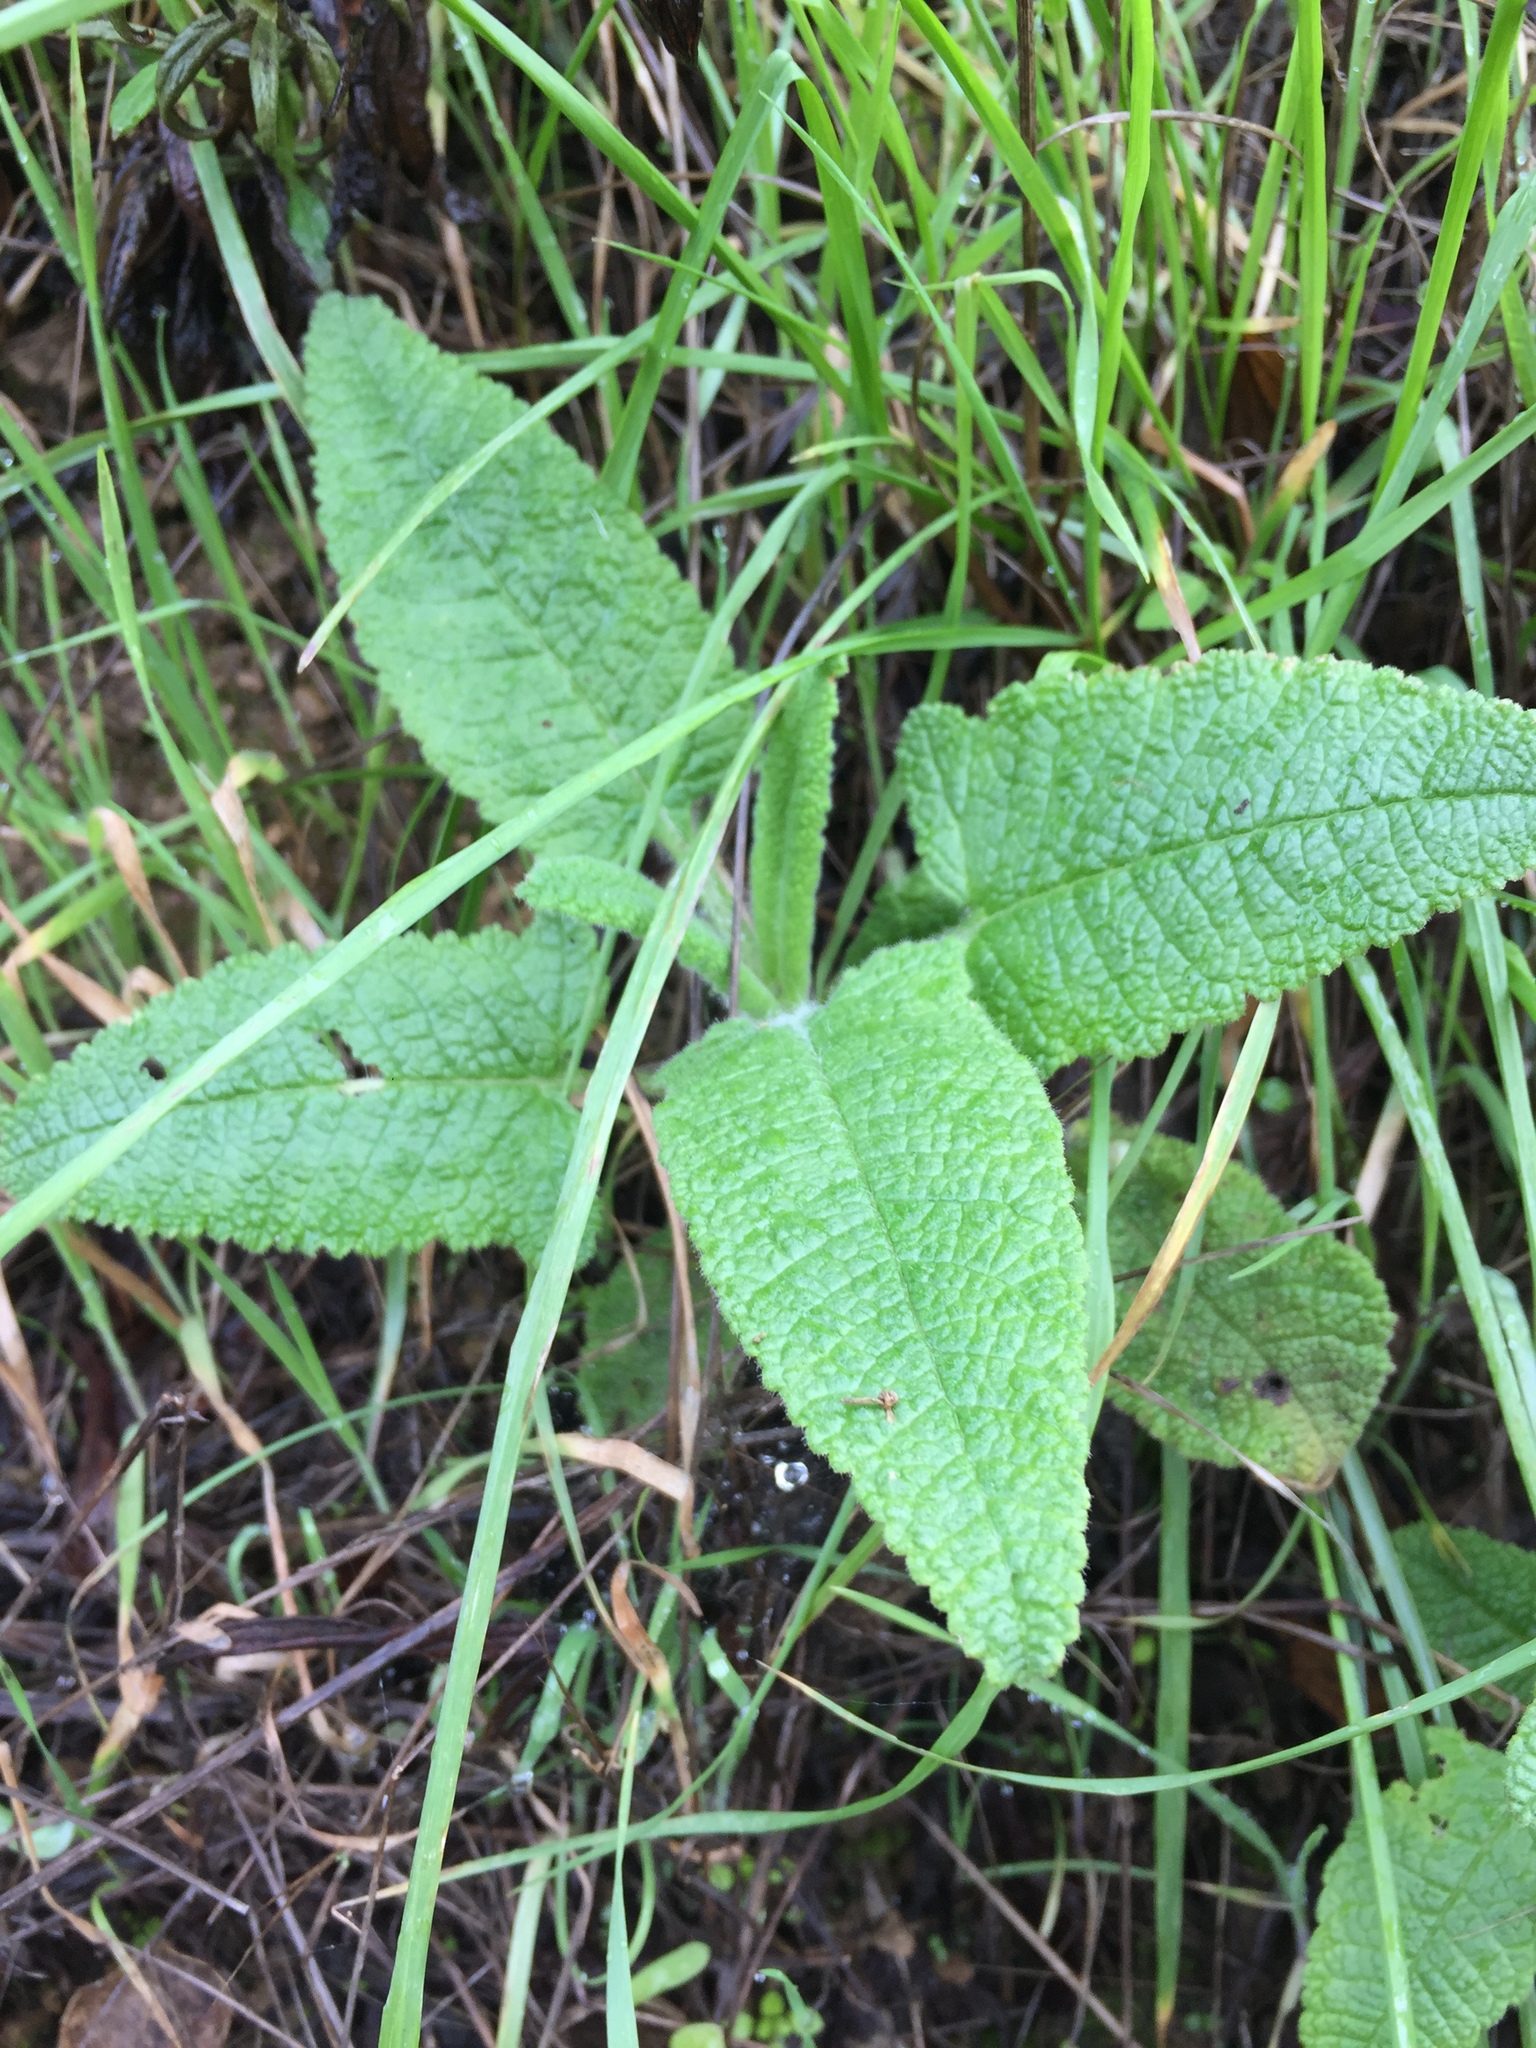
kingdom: Plantae
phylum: Tracheophyta
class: Magnoliopsida
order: Lamiales
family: Lamiaceae
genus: Salvia
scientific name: Salvia spathacea
